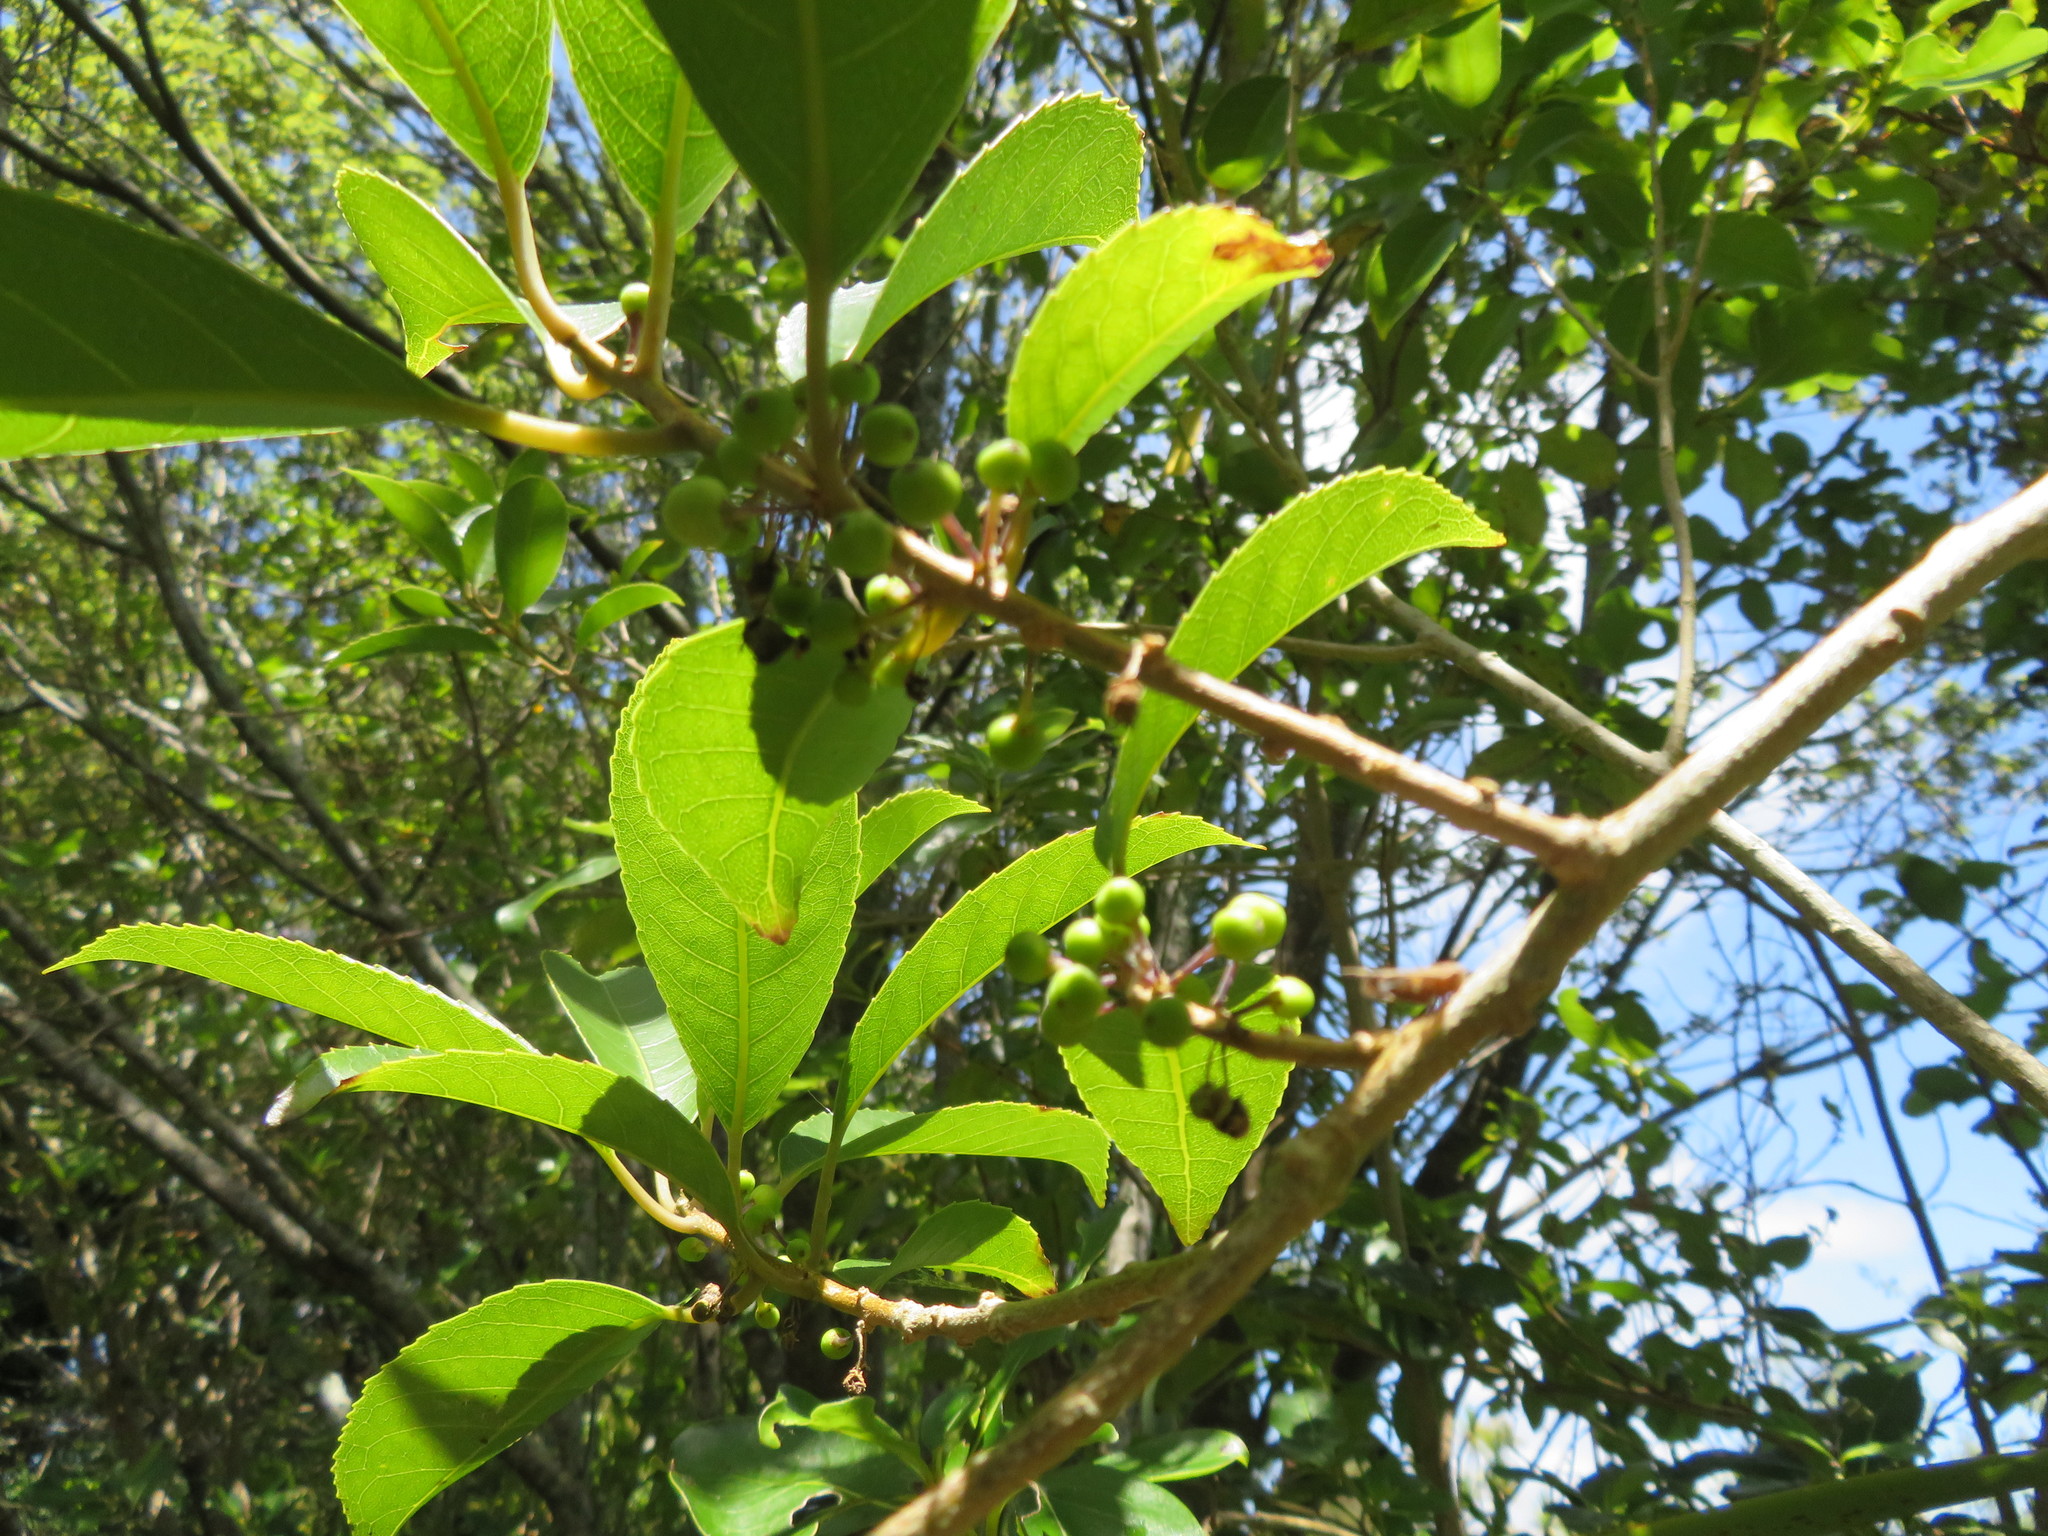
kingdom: Plantae
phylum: Tracheophyta
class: Magnoliopsida
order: Malpighiales
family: Violaceae
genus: Melicytus
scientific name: Melicytus ramiflorus
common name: Mahoe
